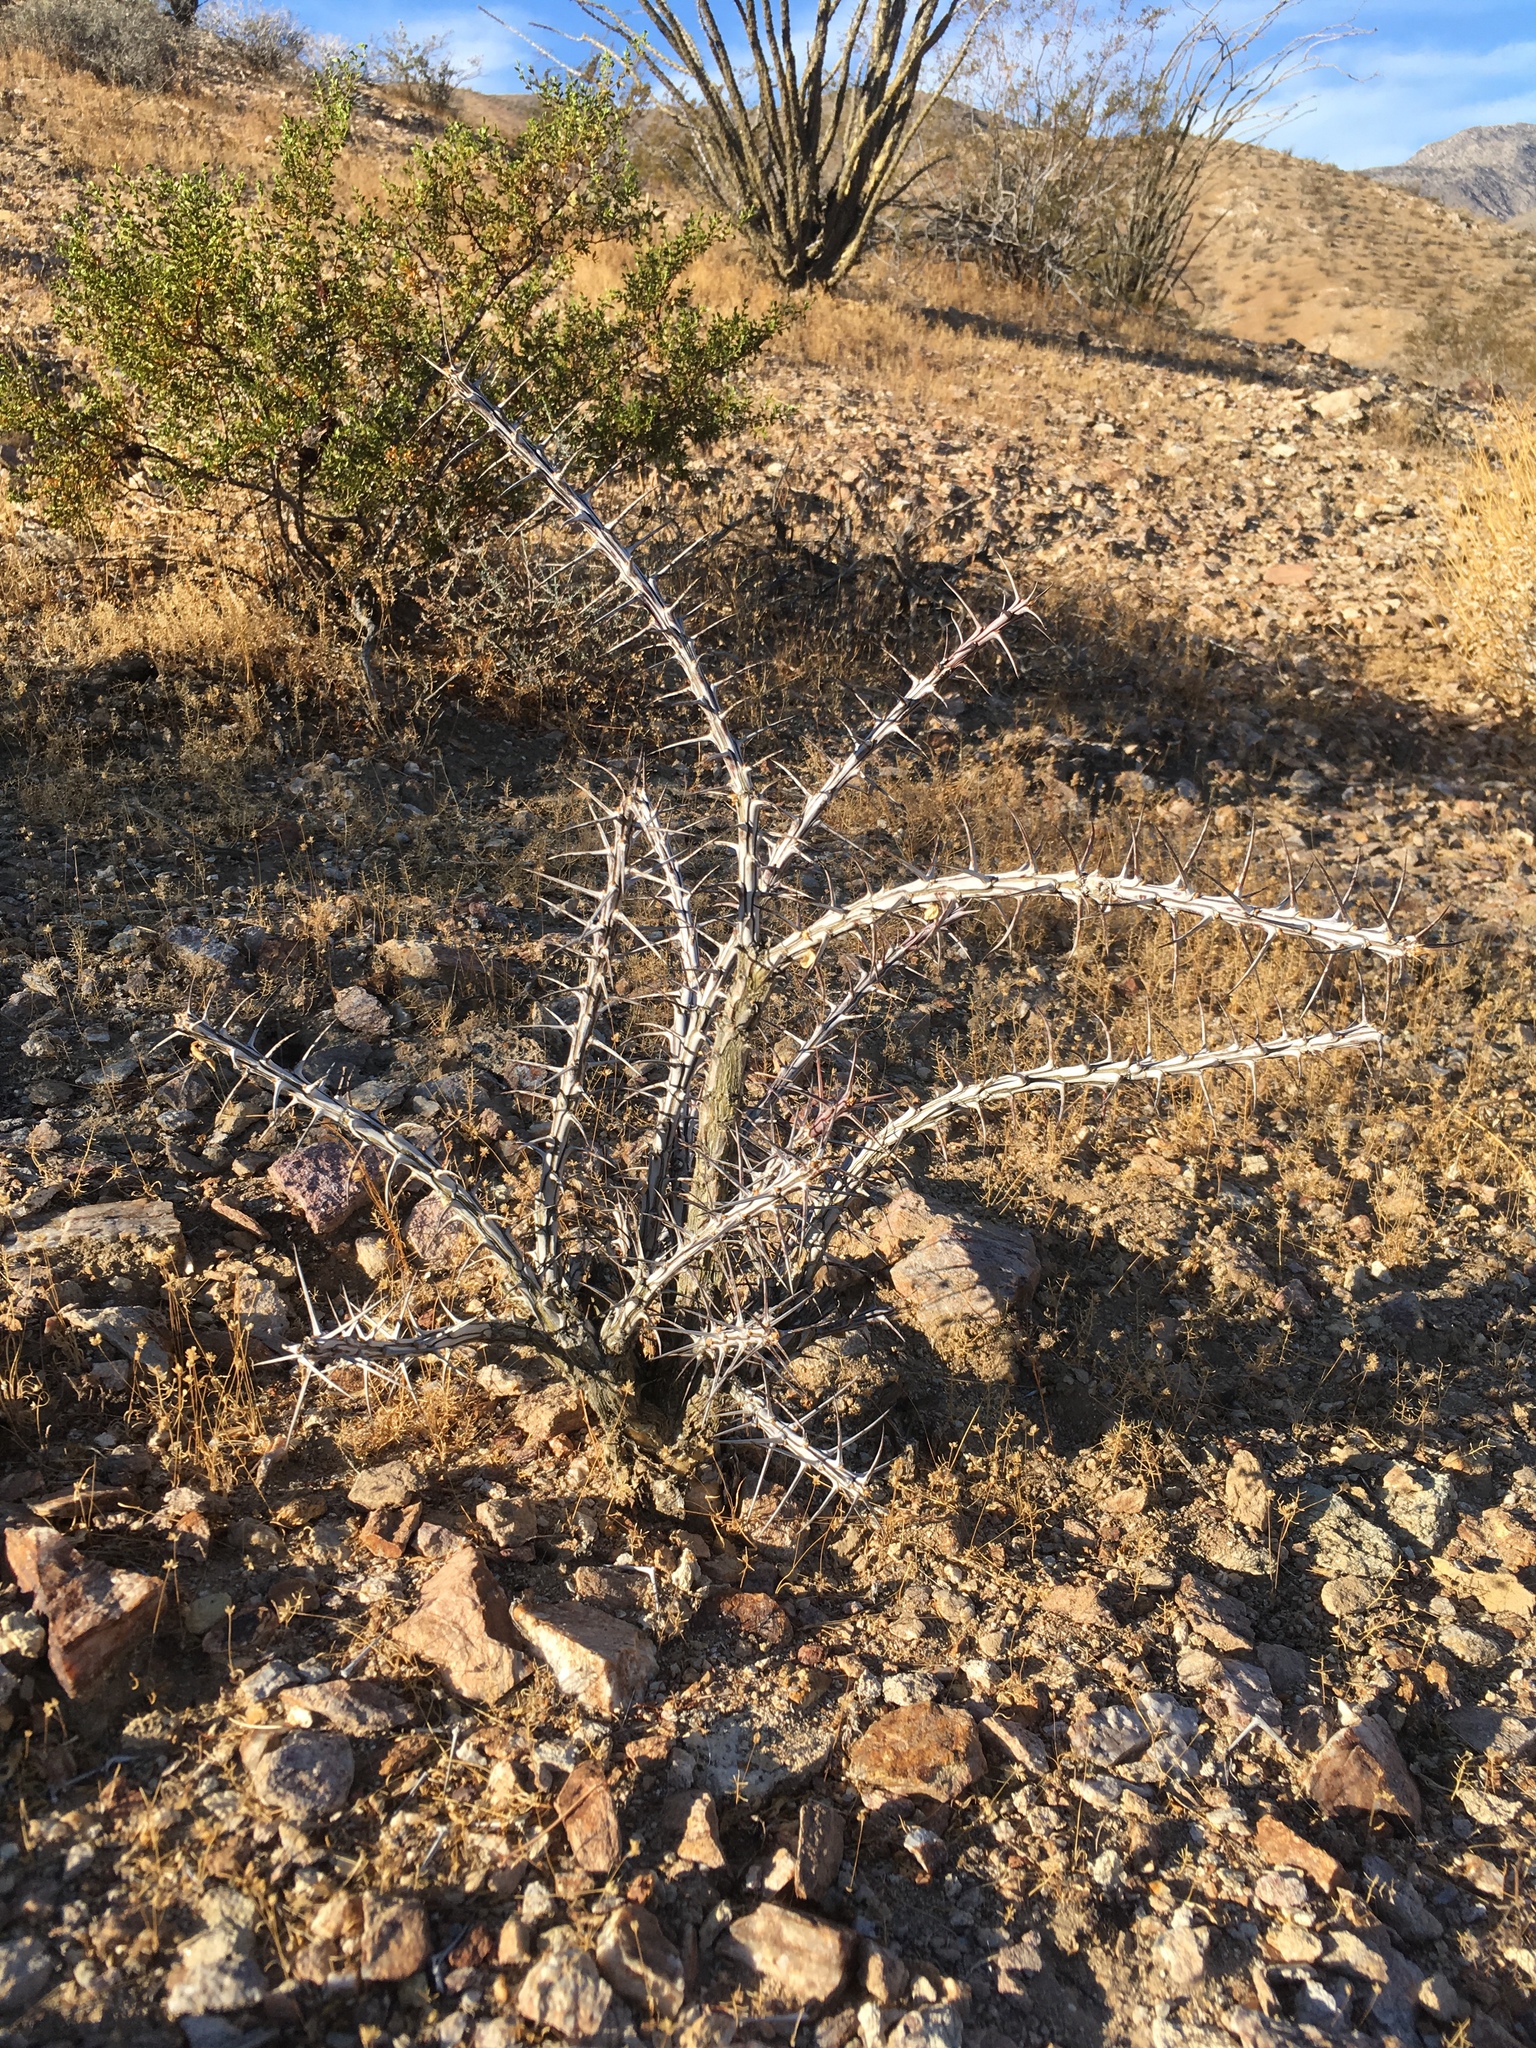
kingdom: Plantae
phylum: Tracheophyta
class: Magnoliopsida
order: Ericales
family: Fouquieriaceae
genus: Fouquieria
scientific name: Fouquieria splendens
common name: Vine-cactus
